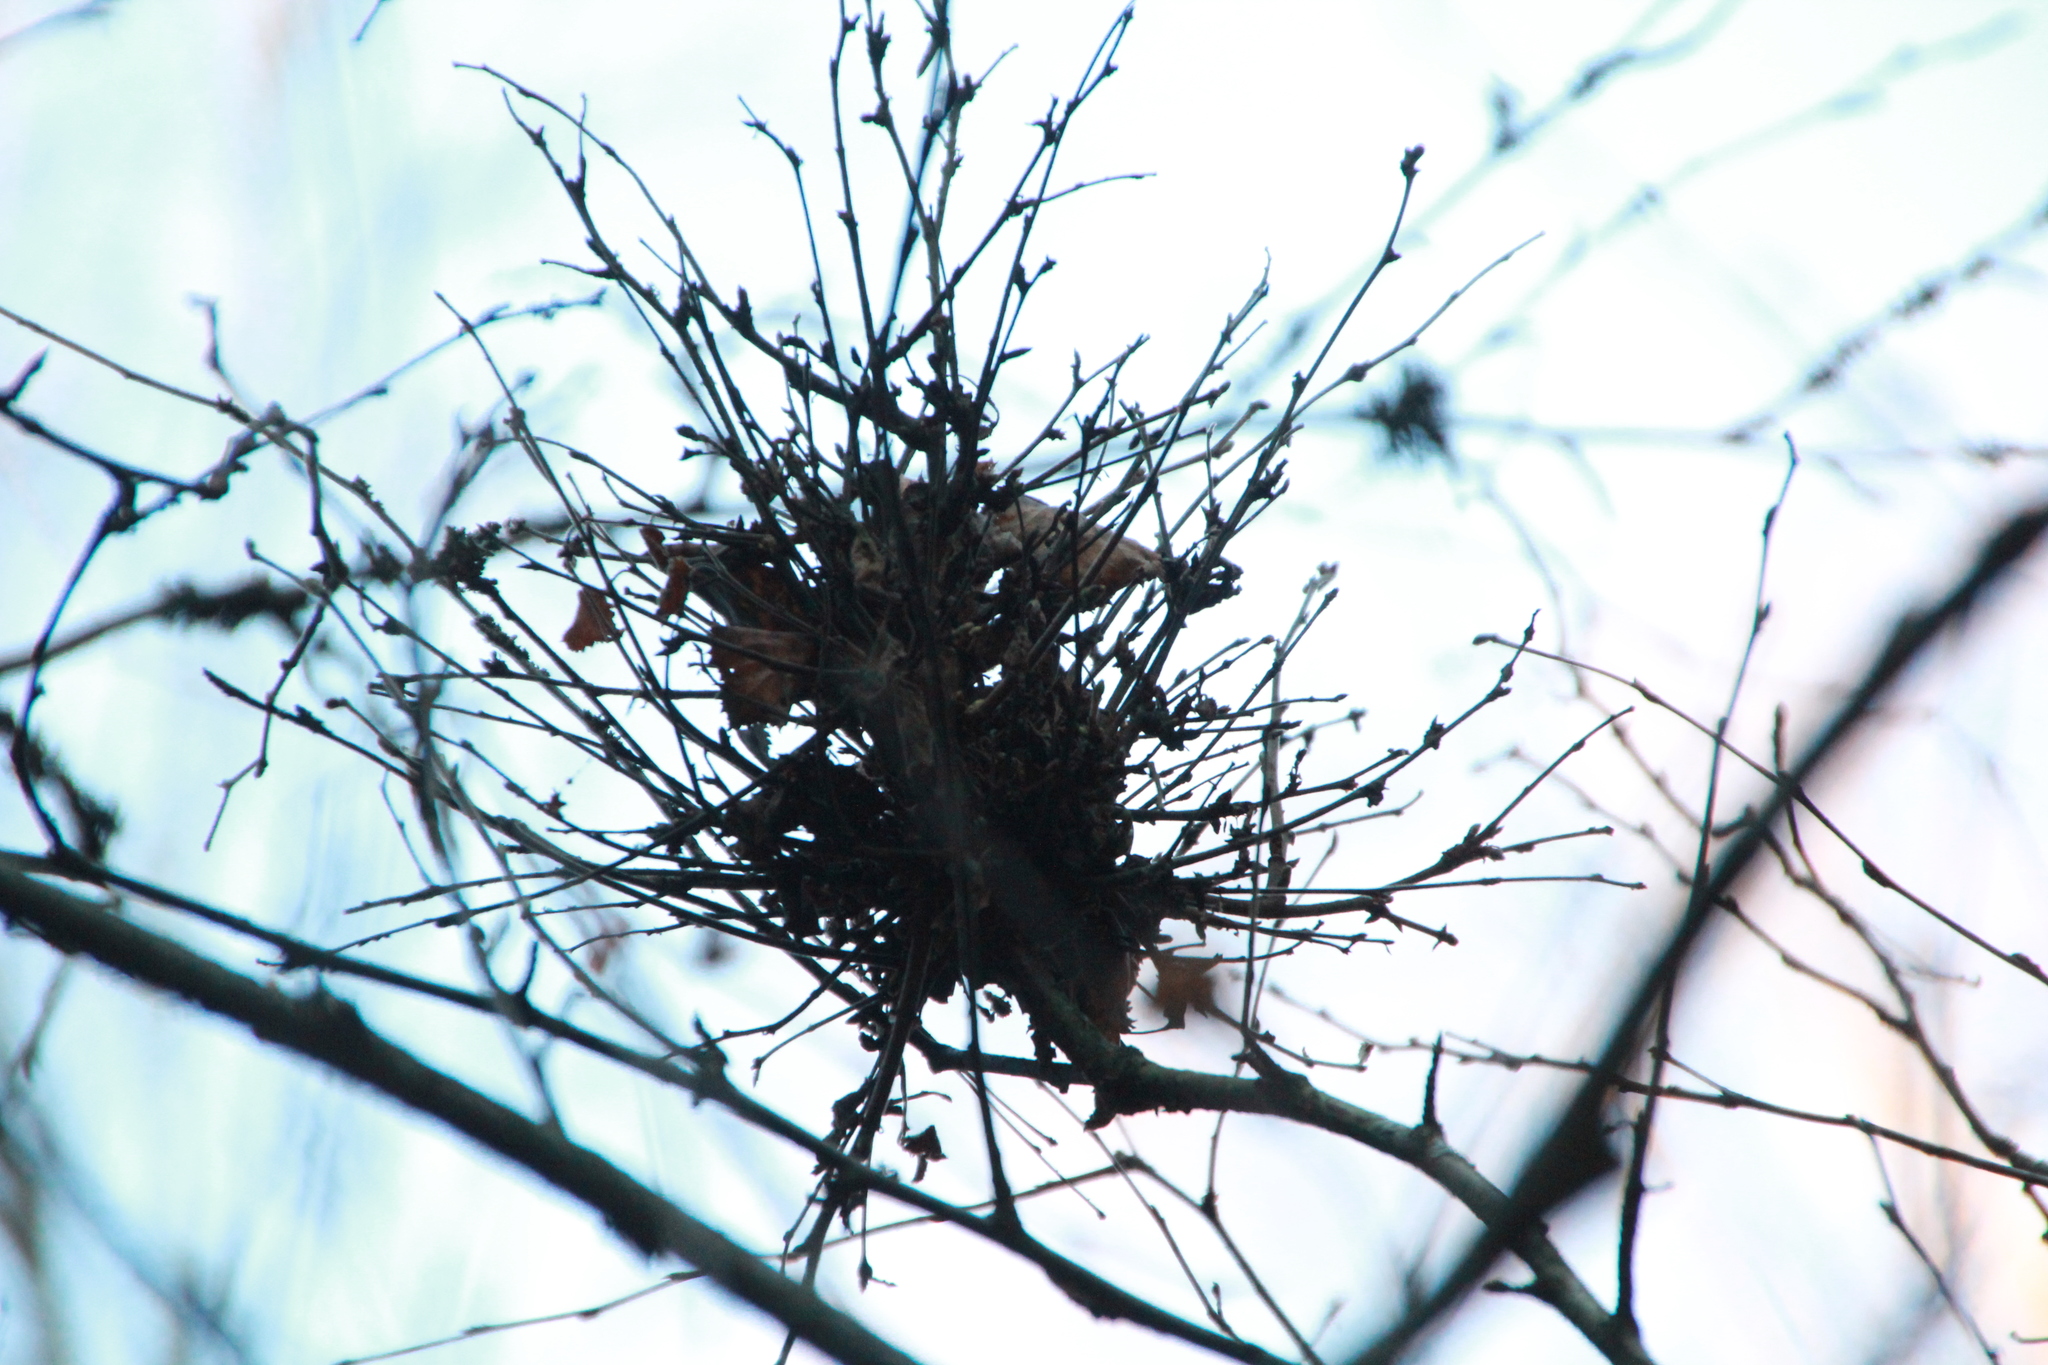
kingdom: Fungi
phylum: Ascomycota
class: Taphrinomycetes
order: Taphrinales
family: Taphrinaceae
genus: Taphrina
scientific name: Taphrina betulina
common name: Birch besom
